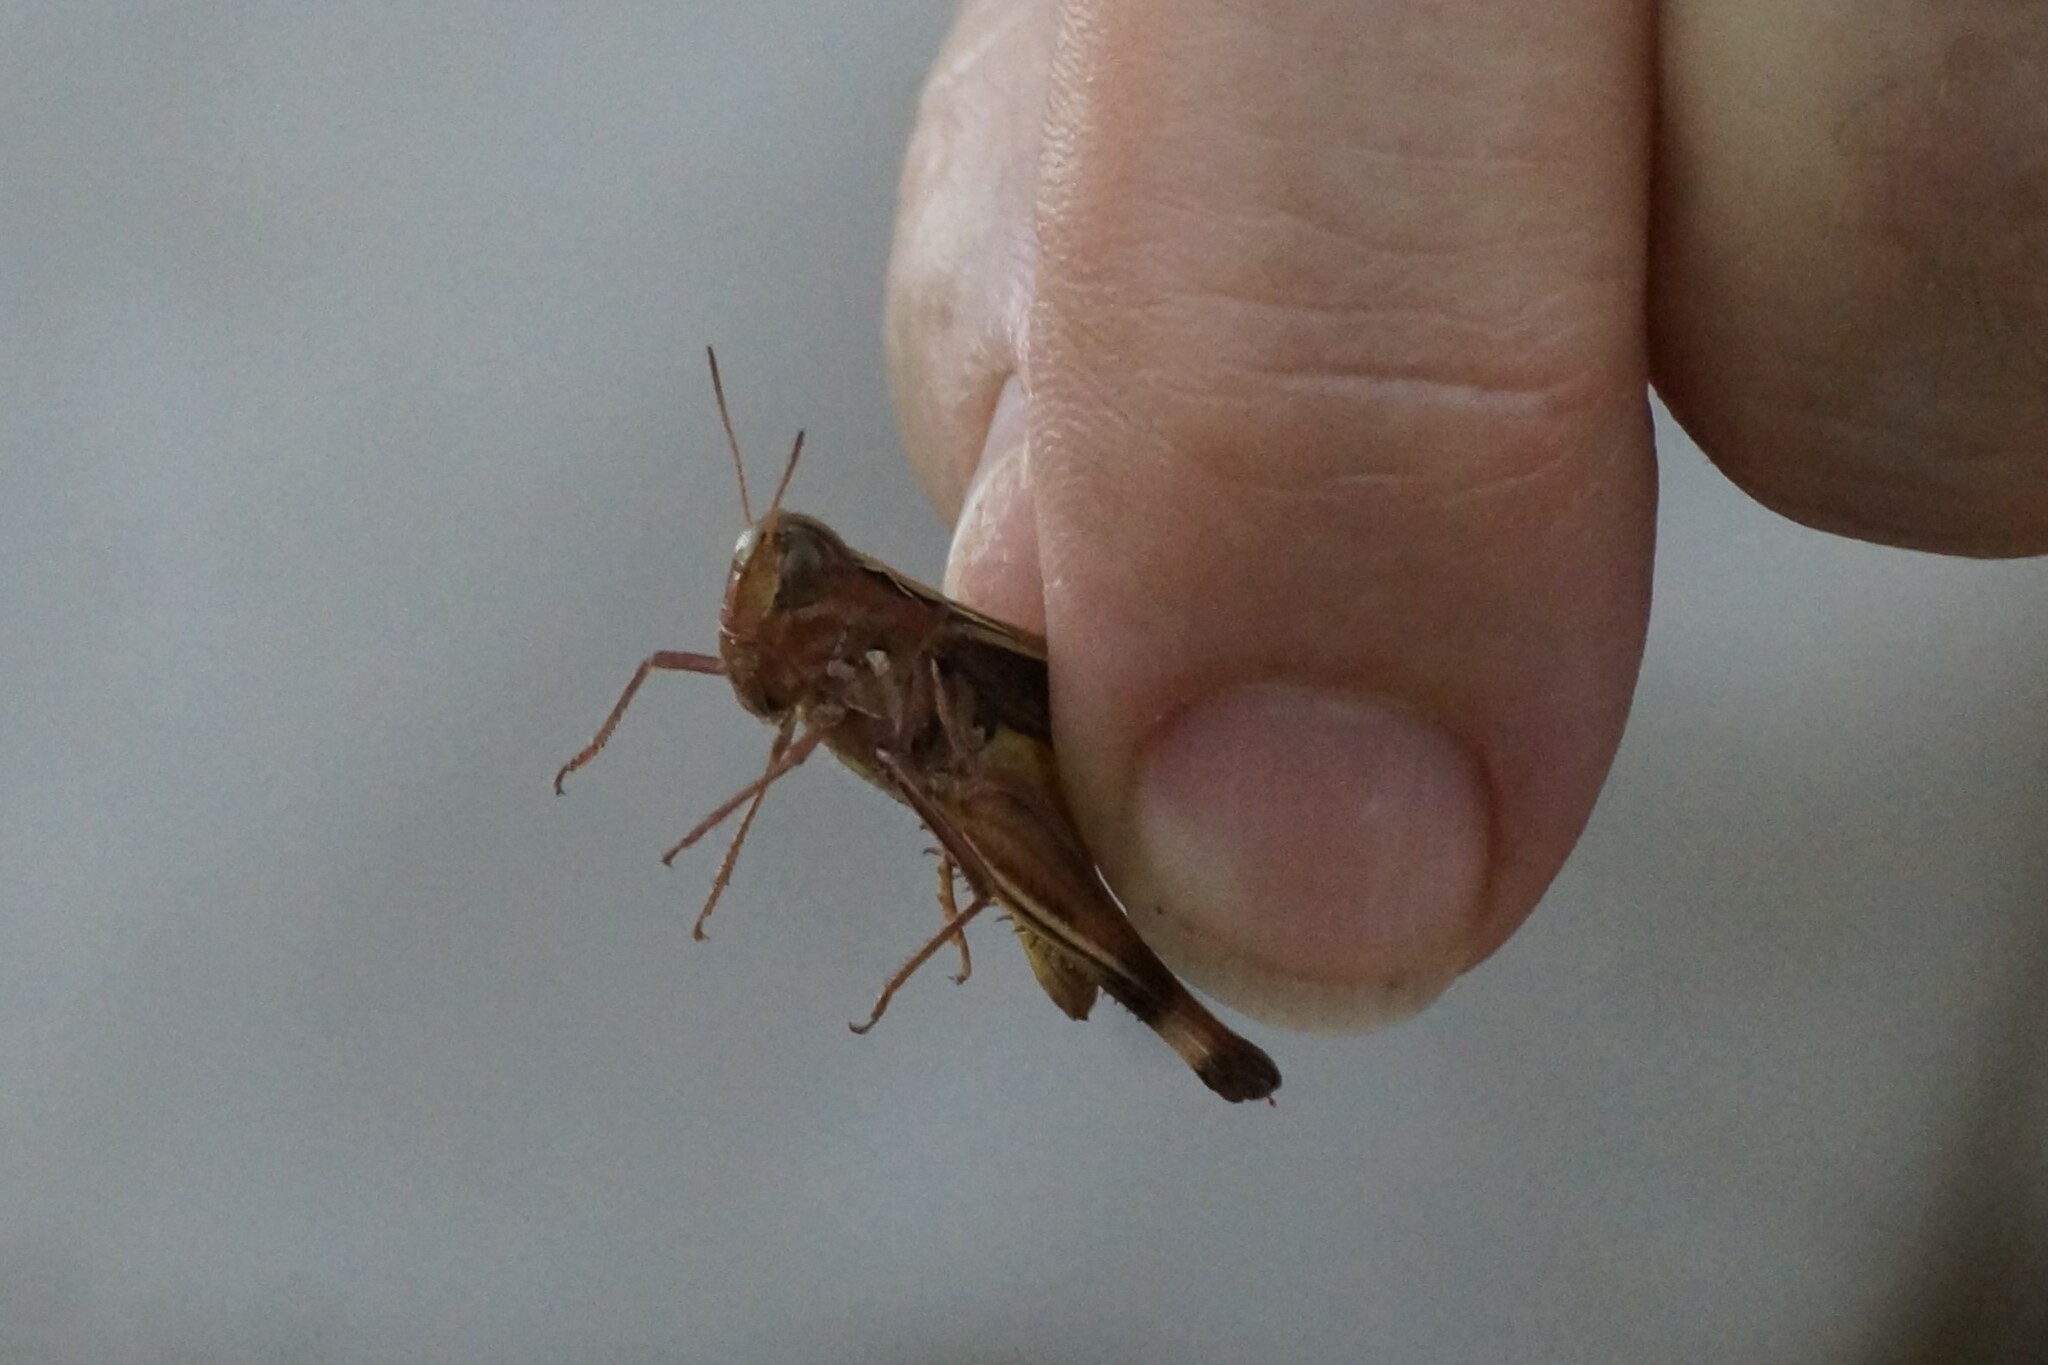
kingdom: Animalia
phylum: Arthropoda
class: Insecta
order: Orthoptera
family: Acrididae
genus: Caledia
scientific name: Caledia captiva
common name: Caledia
